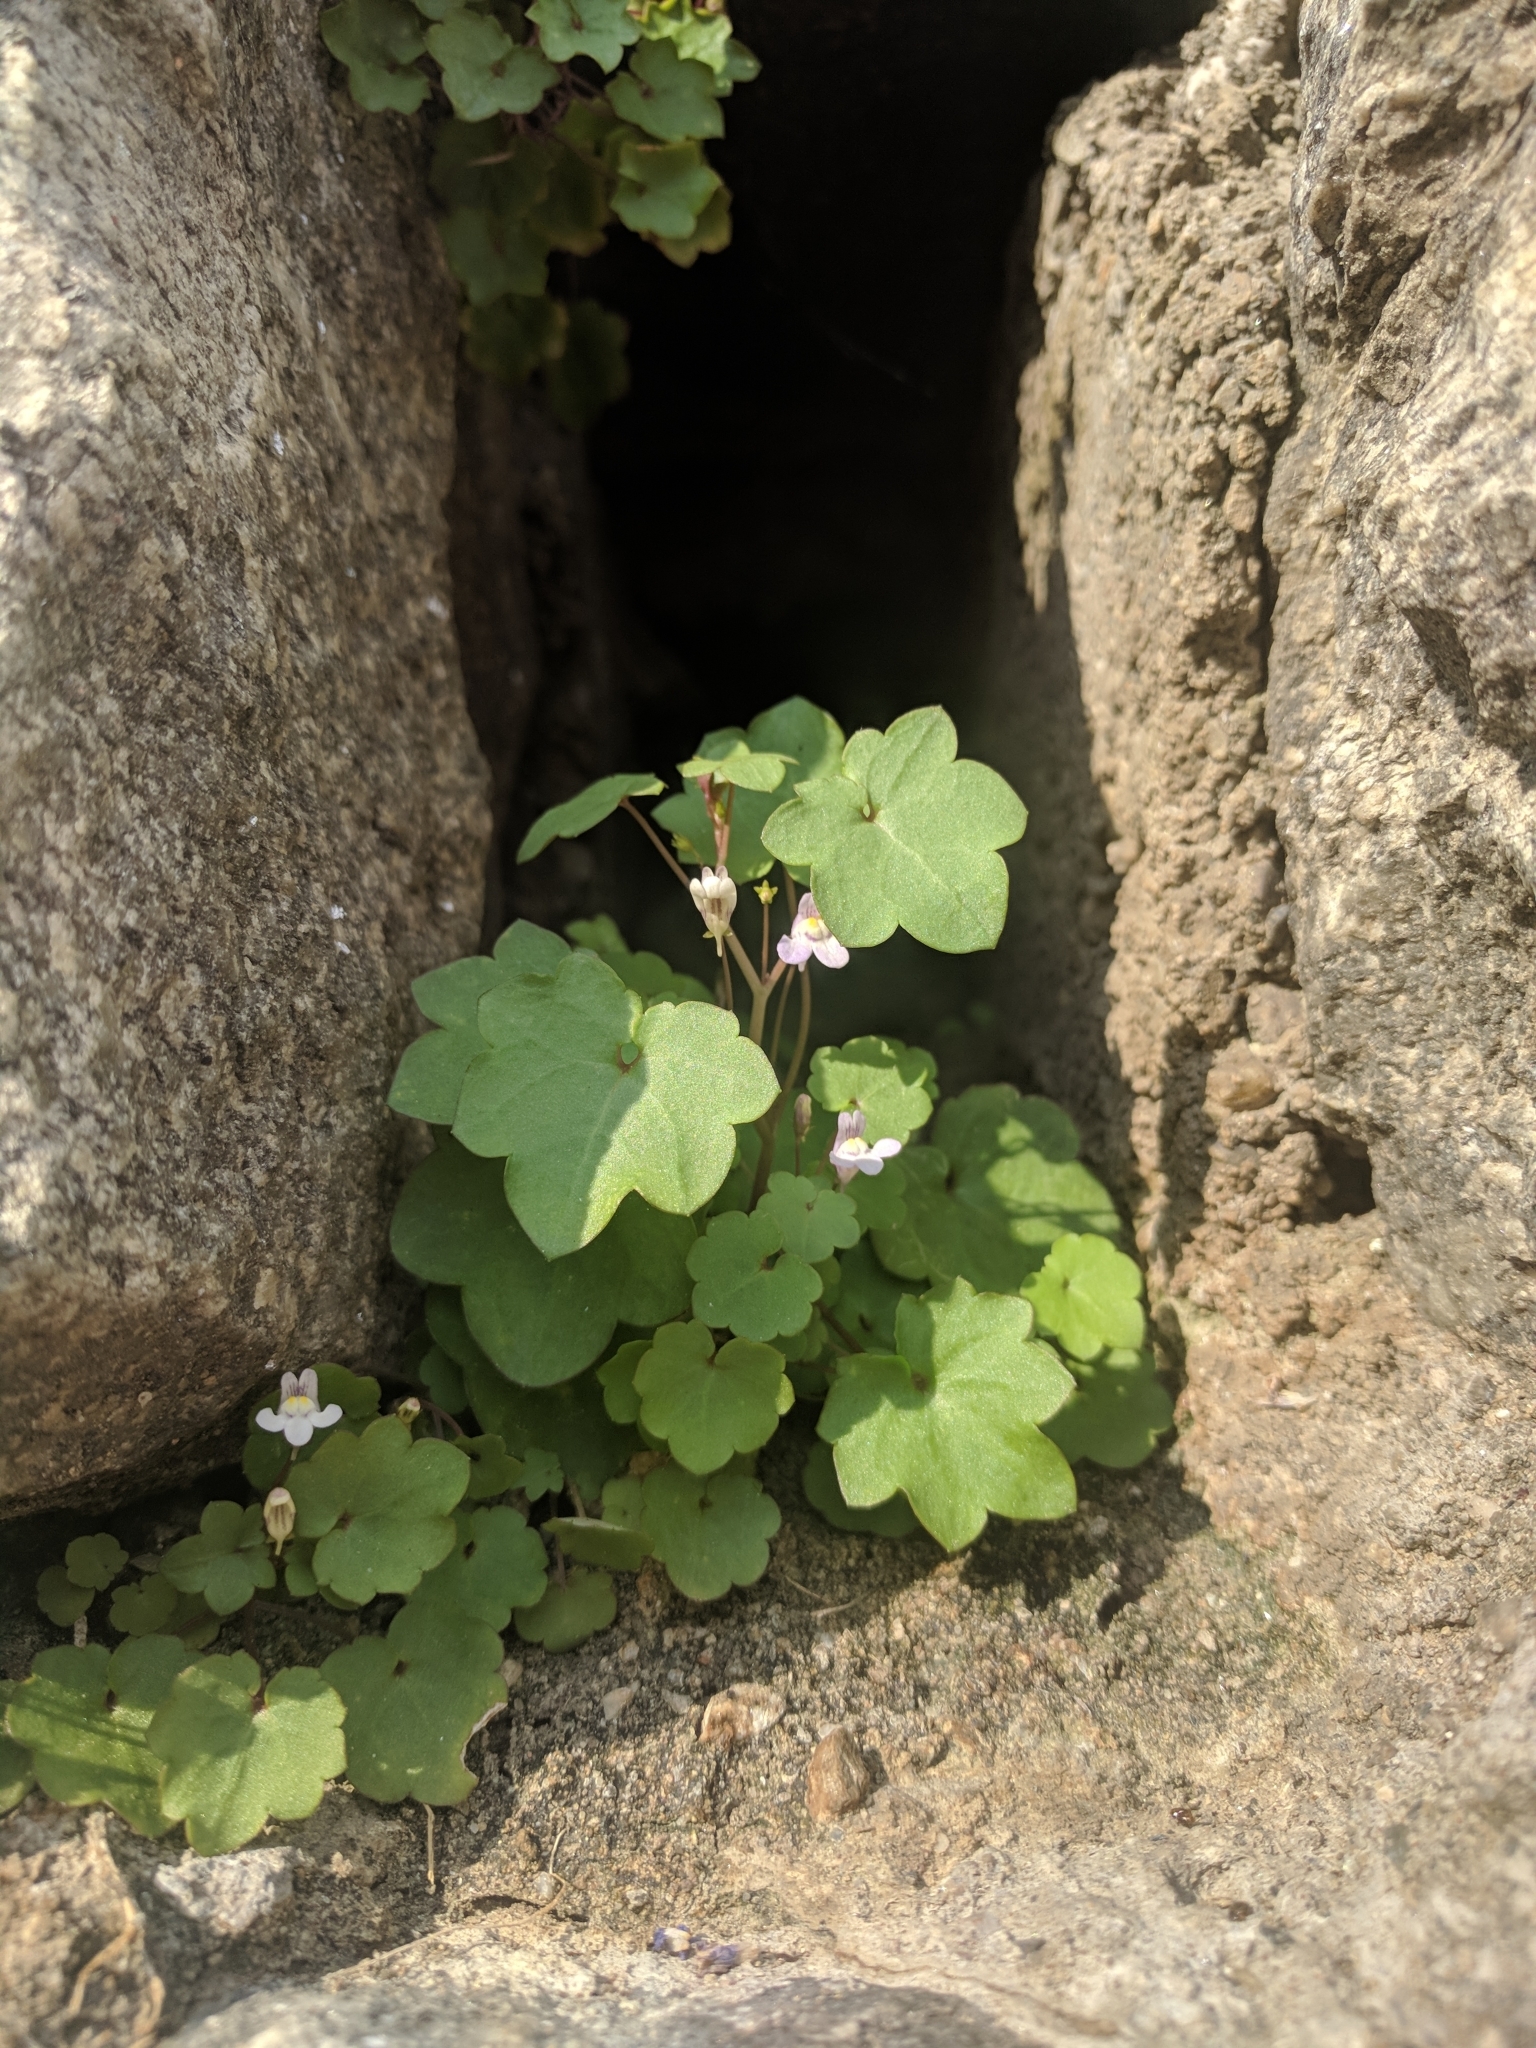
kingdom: Plantae
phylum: Tracheophyta
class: Magnoliopsida
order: Lamiales
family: Plantaginaceae
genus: Cymbalaria
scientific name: Cymbalaria muralis
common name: Ivy-leaved toadflax
